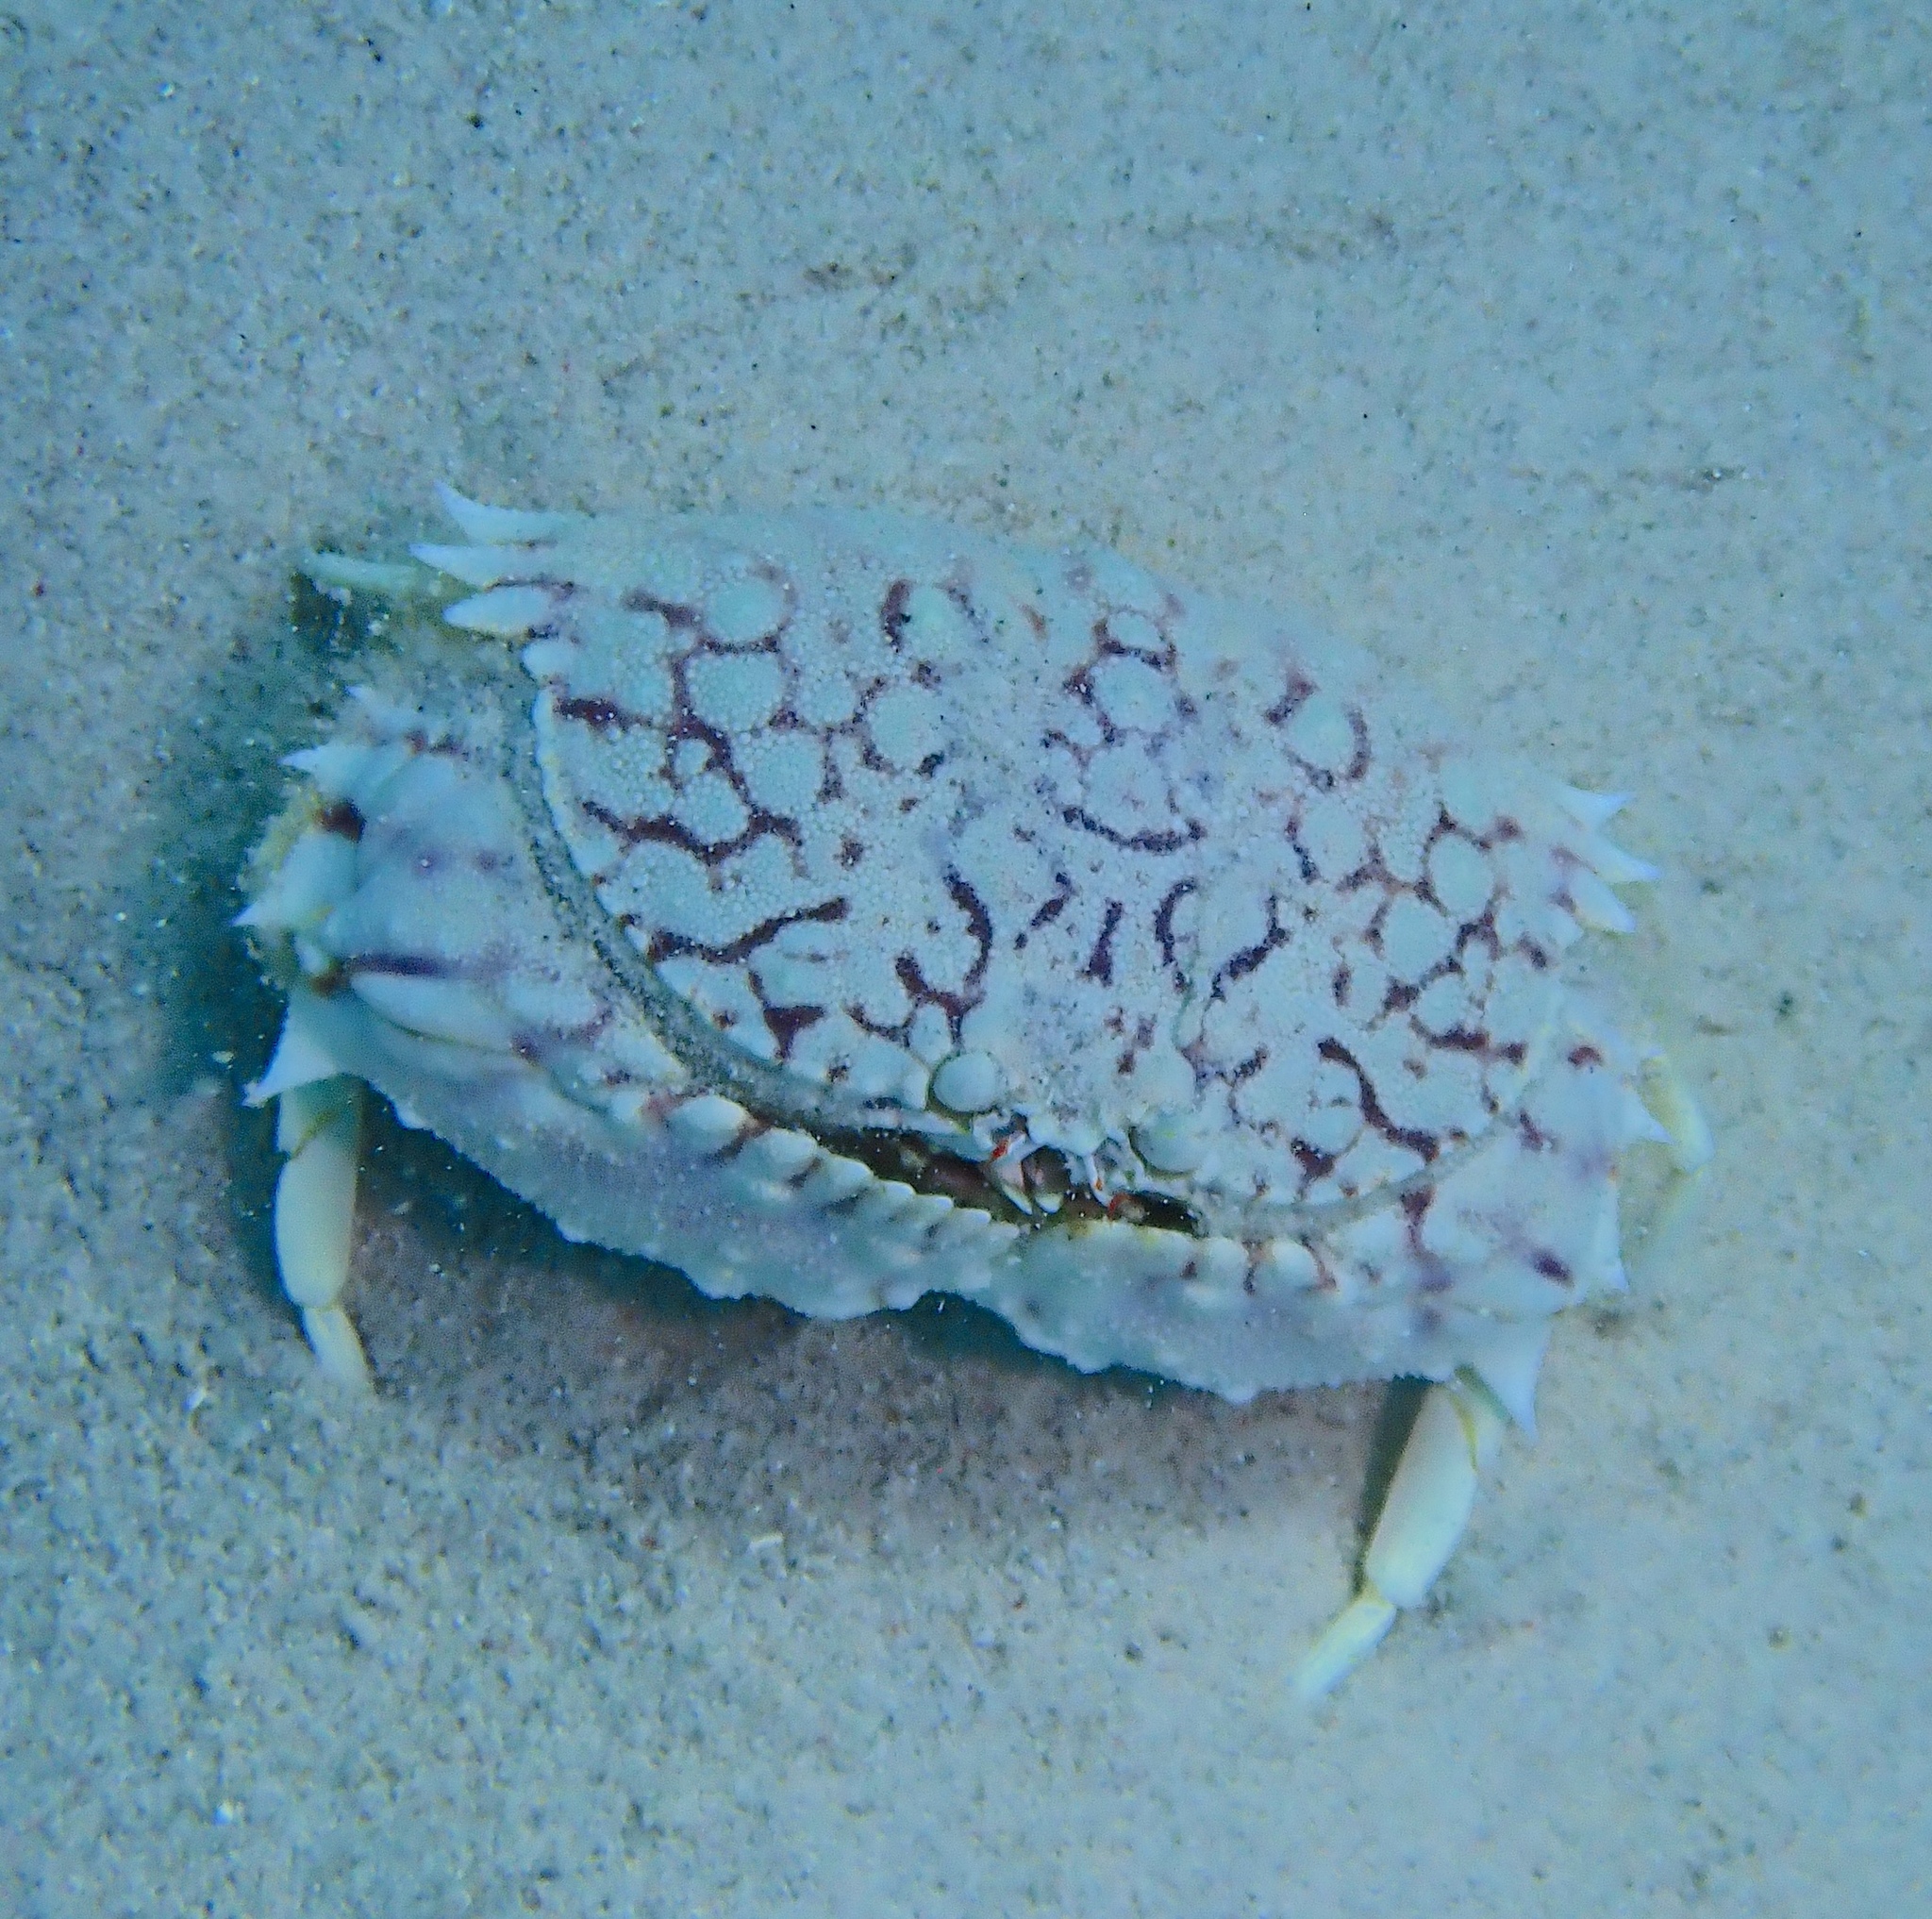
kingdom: Animalia
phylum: Arthropoda
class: Malacostraca
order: Decapoda
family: Calappidae
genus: Calappa
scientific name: Calappa ocellata
